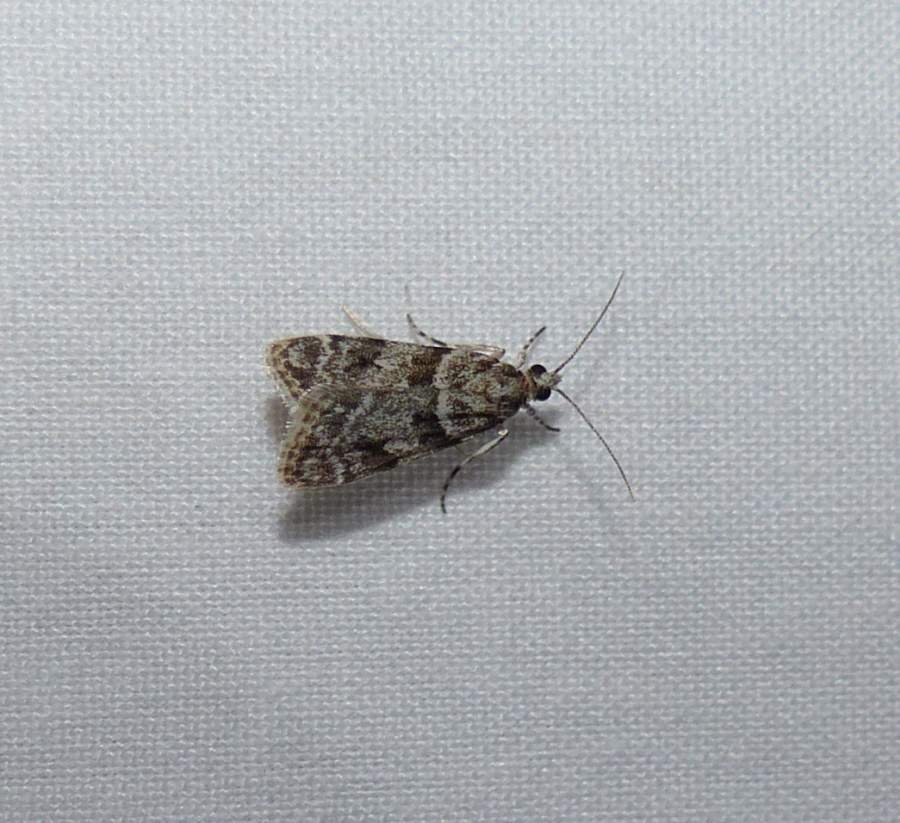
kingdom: Animalia
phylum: Arthropoda
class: Insecta
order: Lepidoptera
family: Crambidae
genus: Scoparia
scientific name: Scoparia biplagialis
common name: Double-striped scoparia moth
